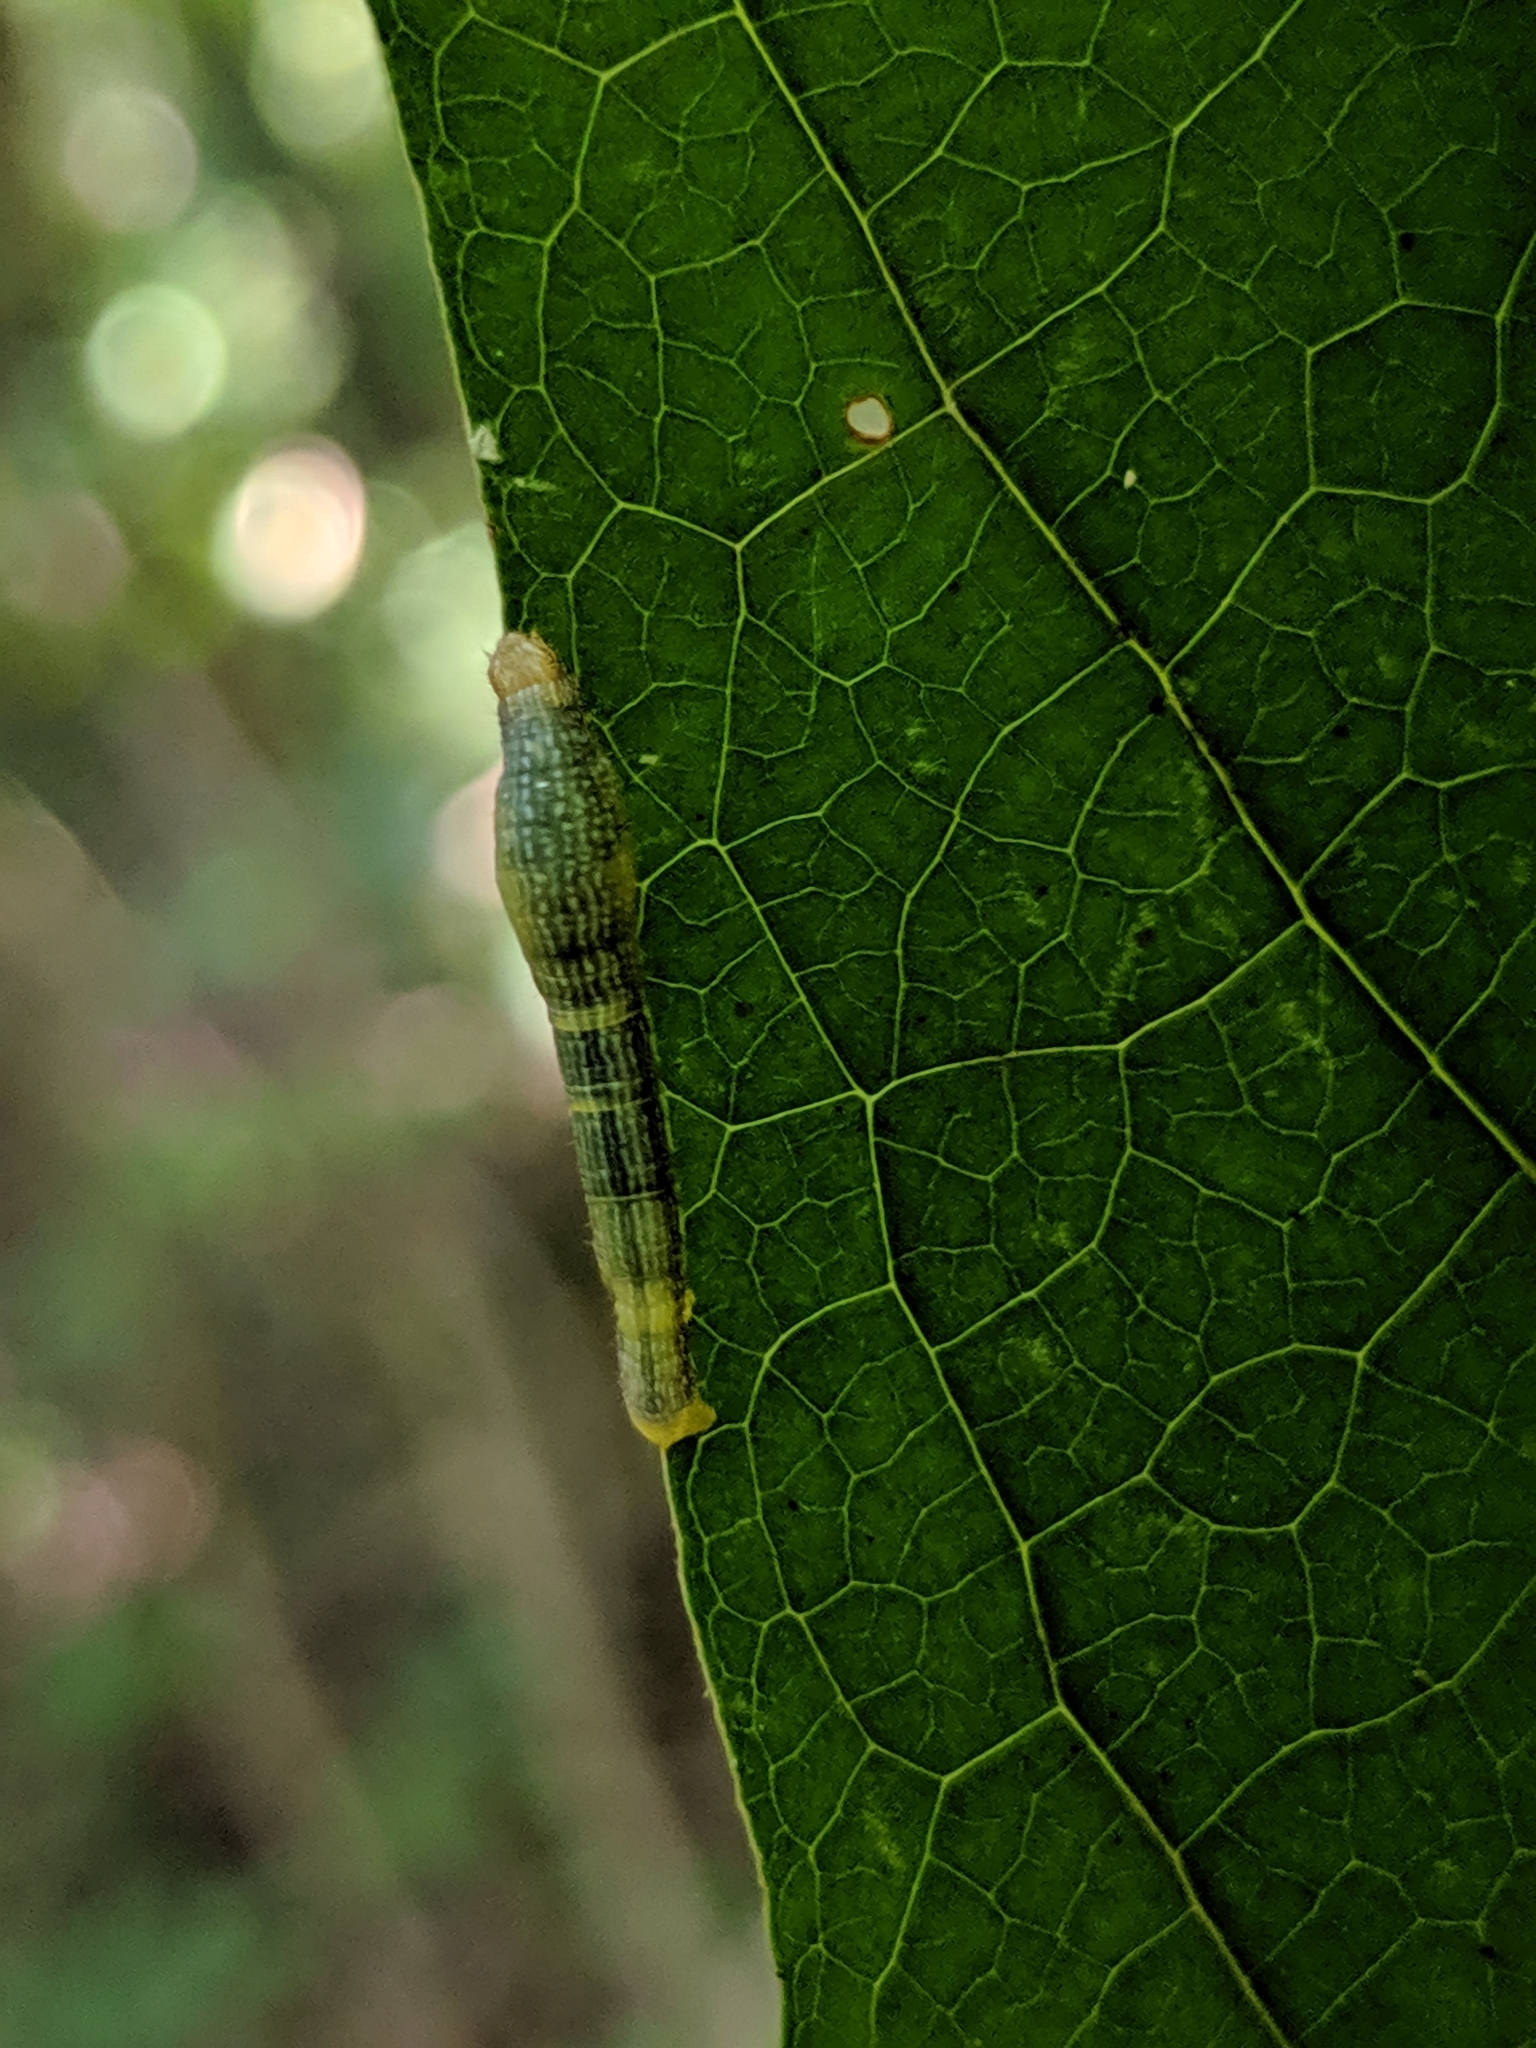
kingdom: Animalia
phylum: Arthropoda
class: Insecta
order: Lepidoptera
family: Geometridae
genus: Epimecis
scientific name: Epimecis hortaria
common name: Tulip-tree beauty
